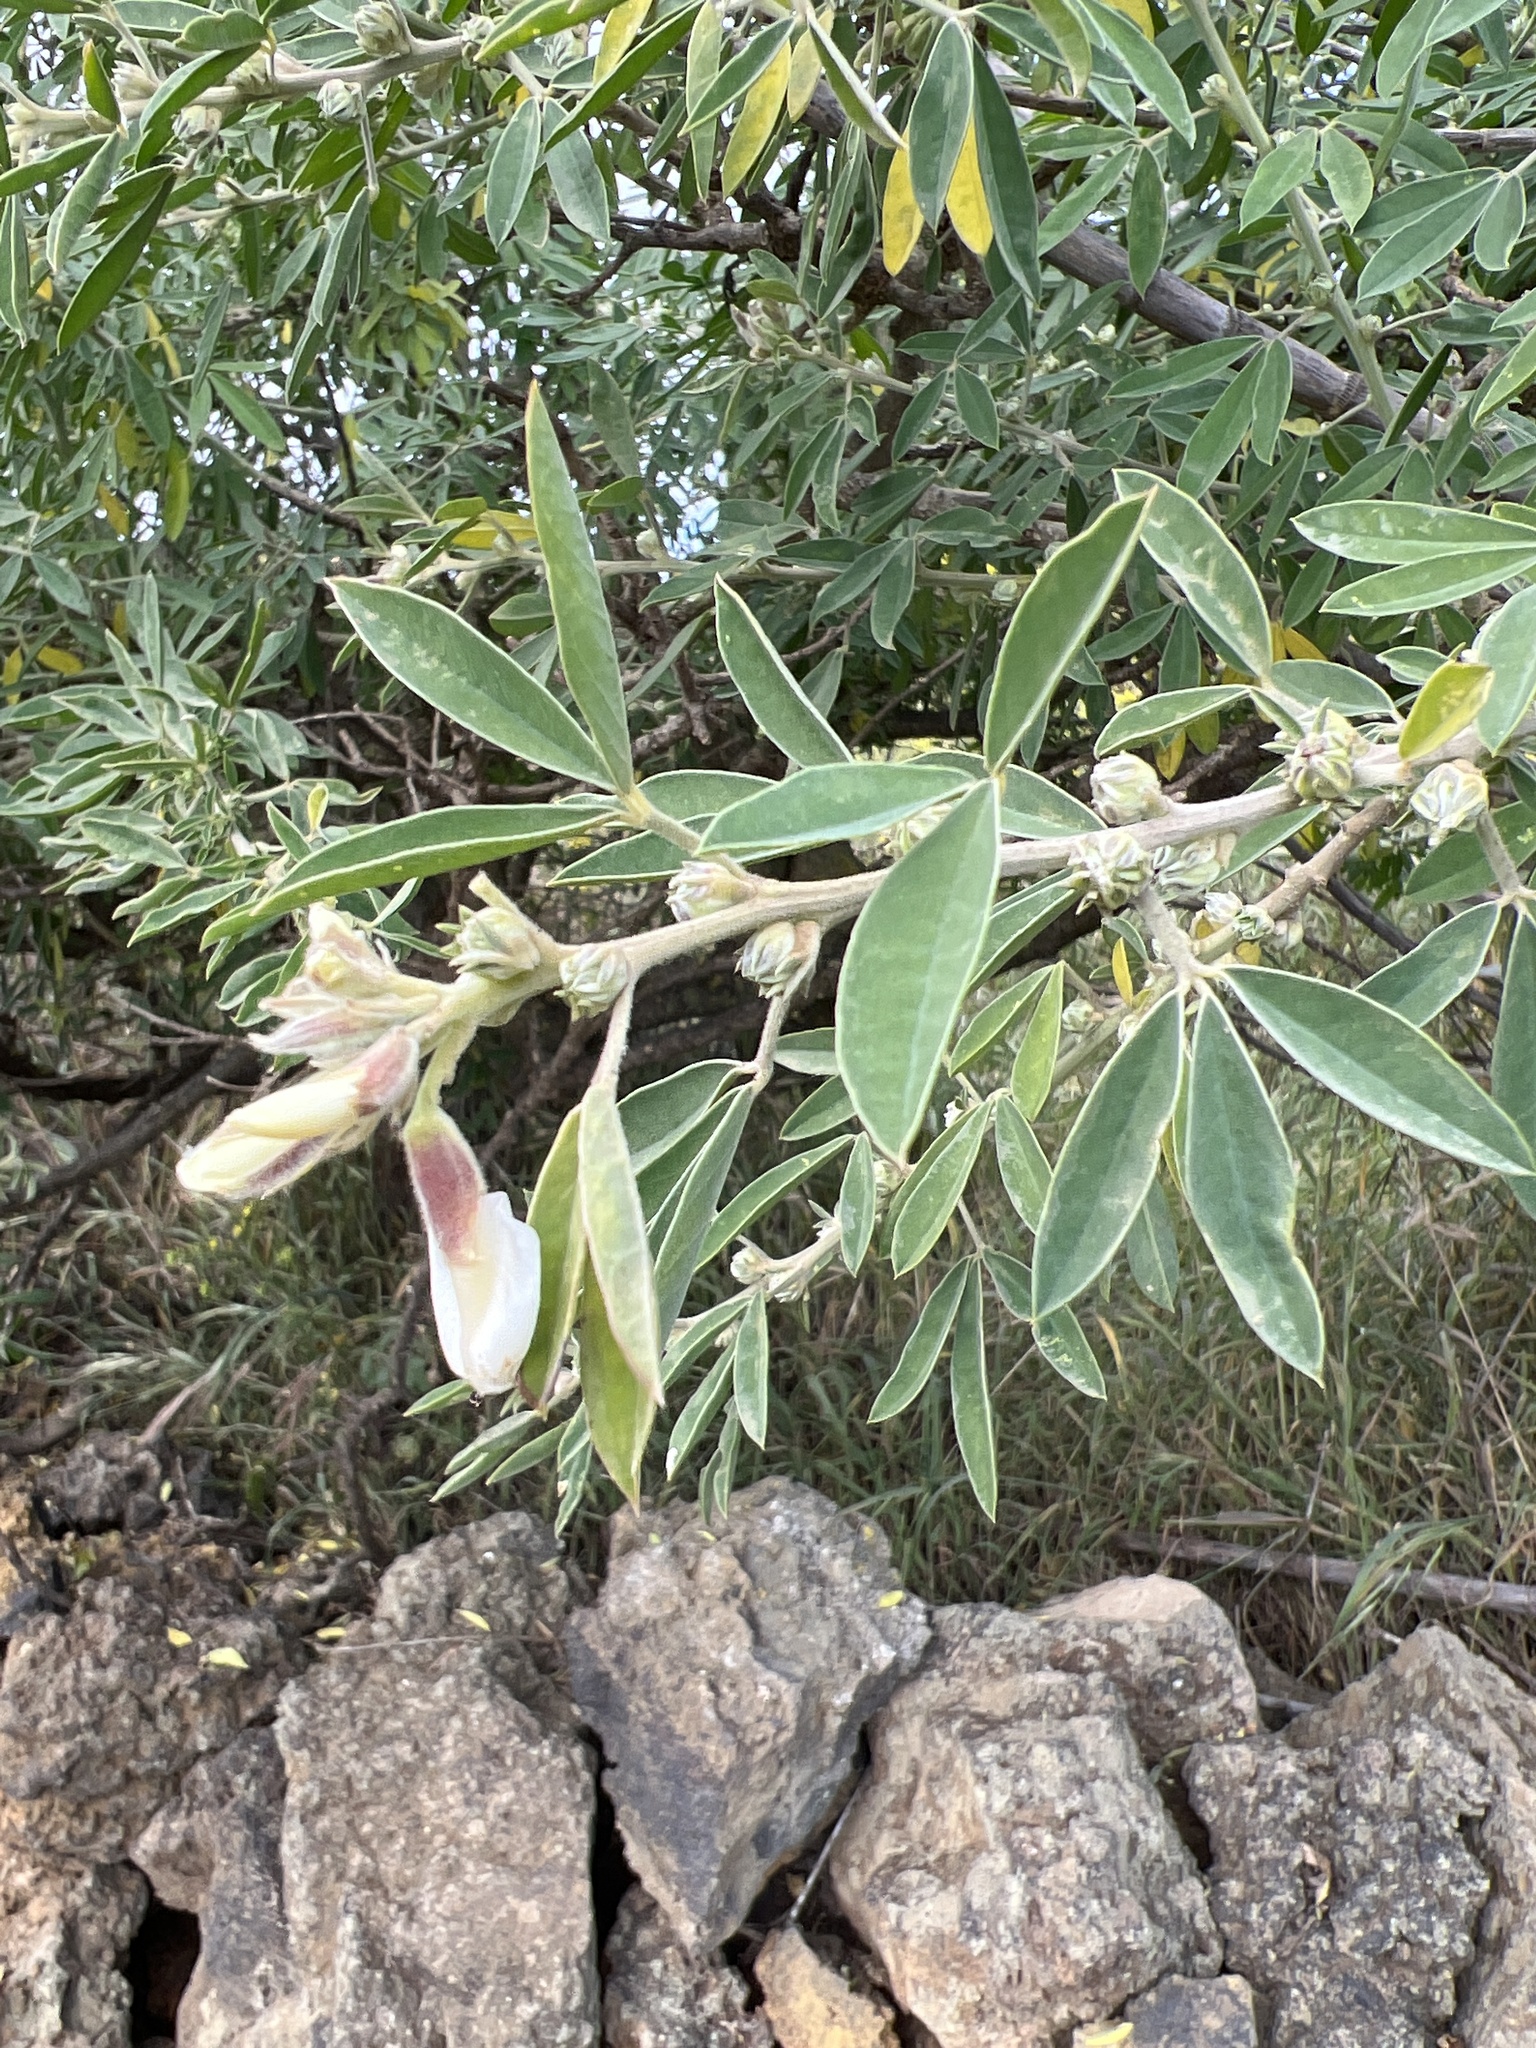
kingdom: Plantae
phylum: Tracheophyta
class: Magnoliopsida
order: Fabales
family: Fabaceae
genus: Chamaecytisus
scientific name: Chamaecytisus prolifer
